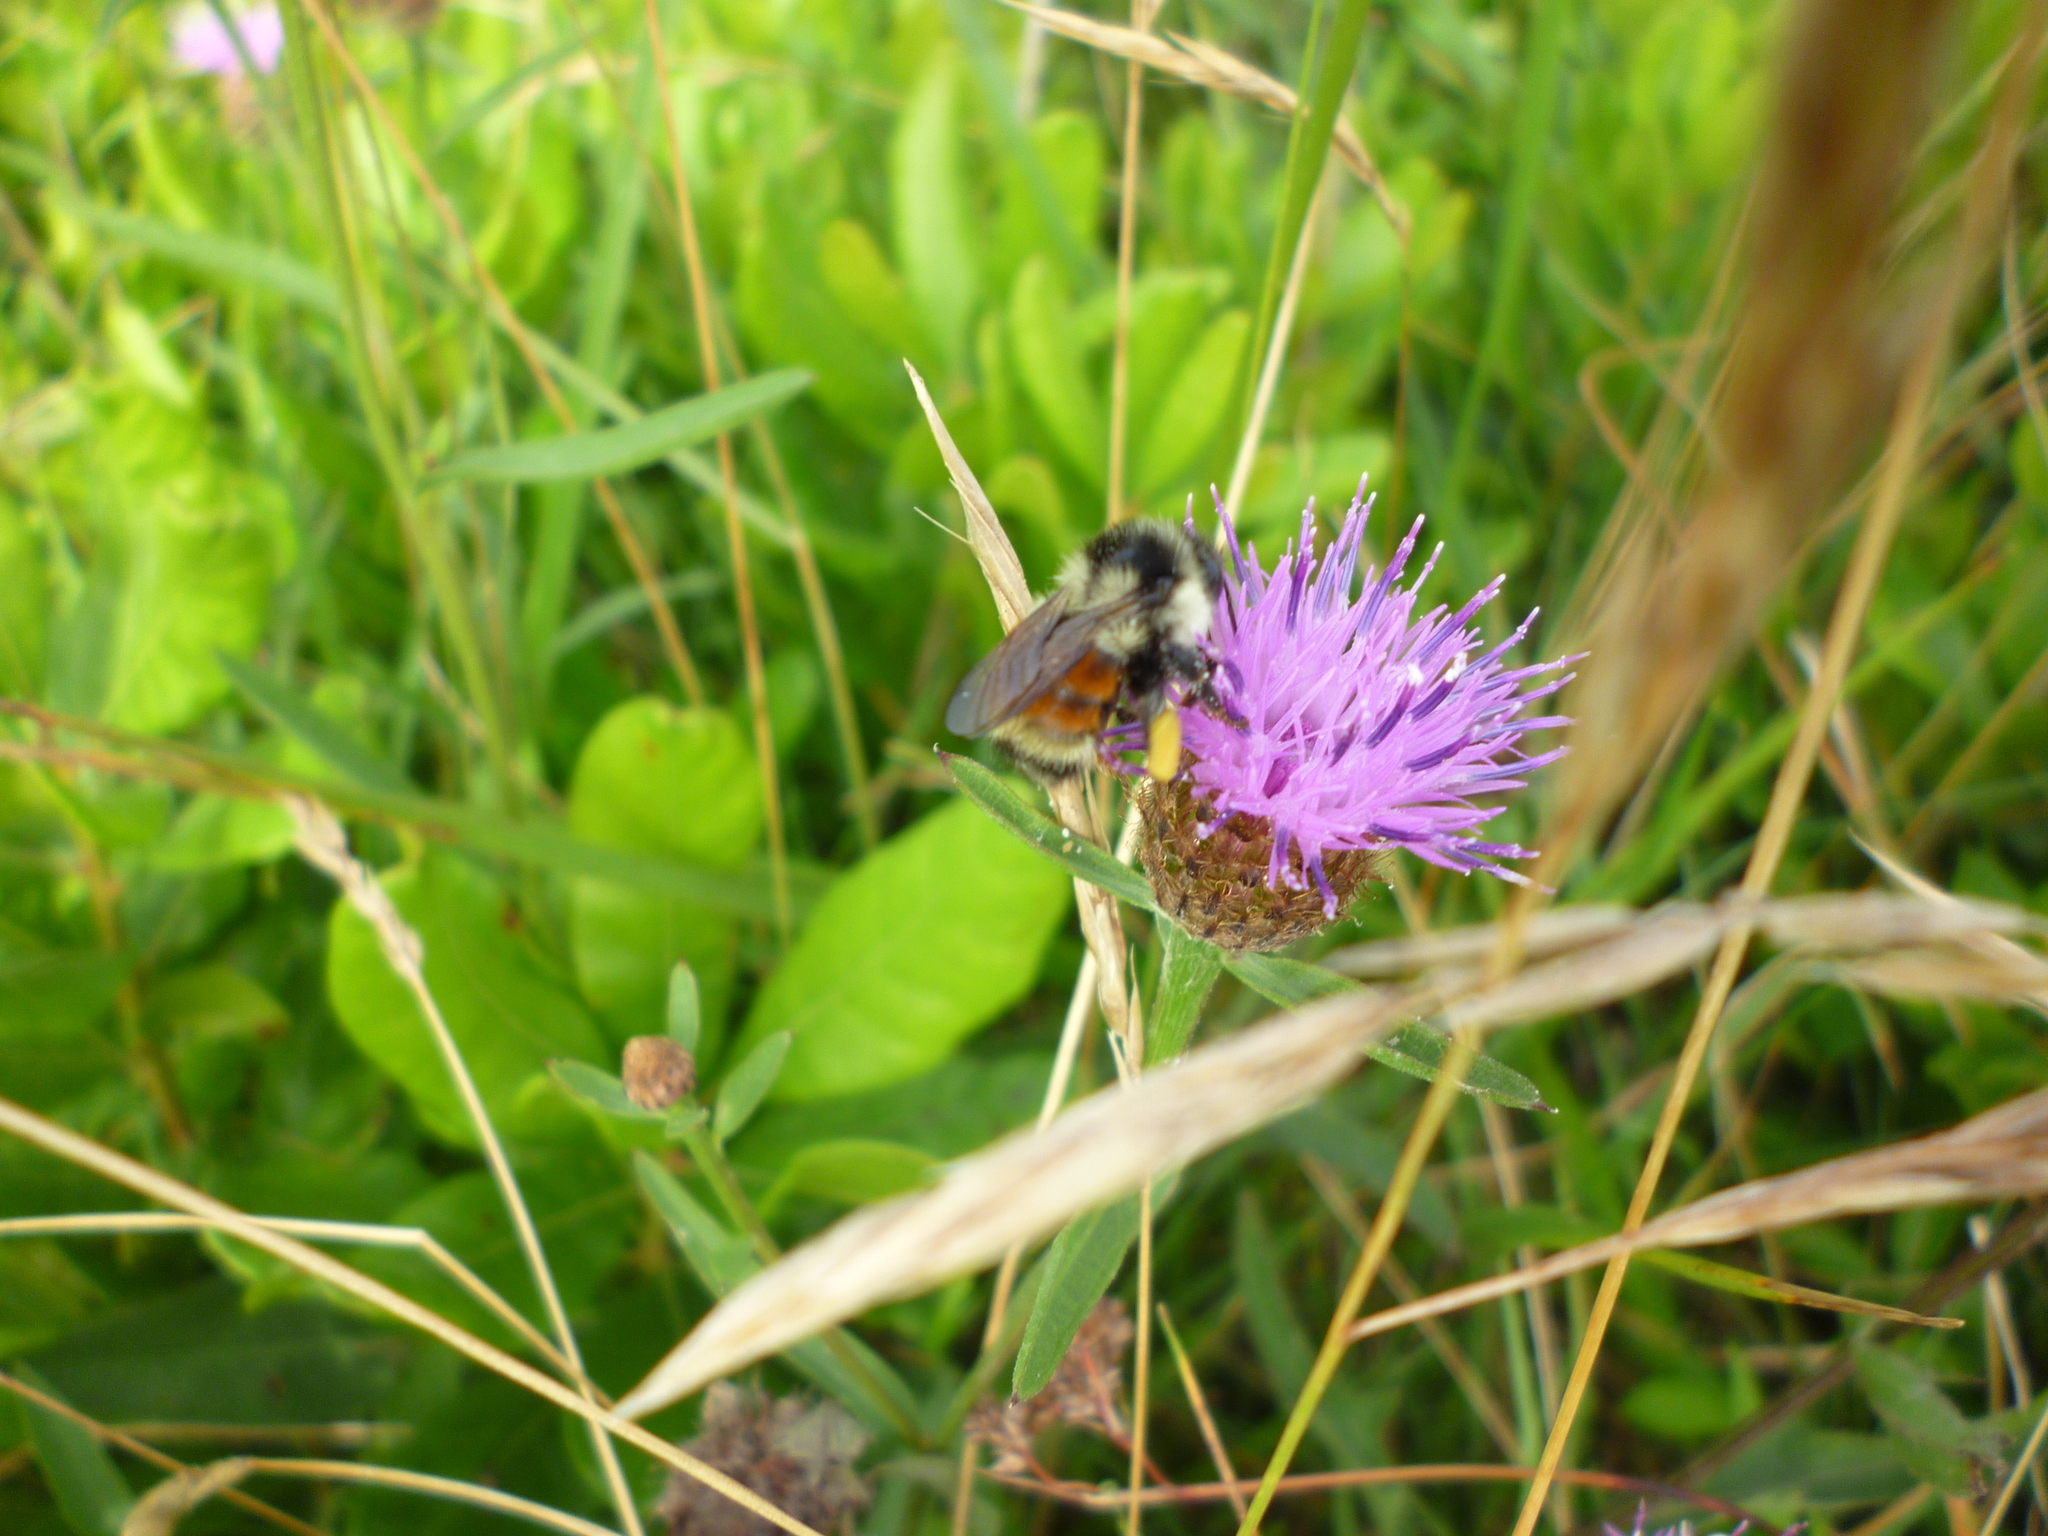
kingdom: Animalia
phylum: Arthropoda
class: Insecta
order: Hymenoptera
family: Apidae
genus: Bombus
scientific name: Bombus ternarius
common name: Tri-colored bumble bee
